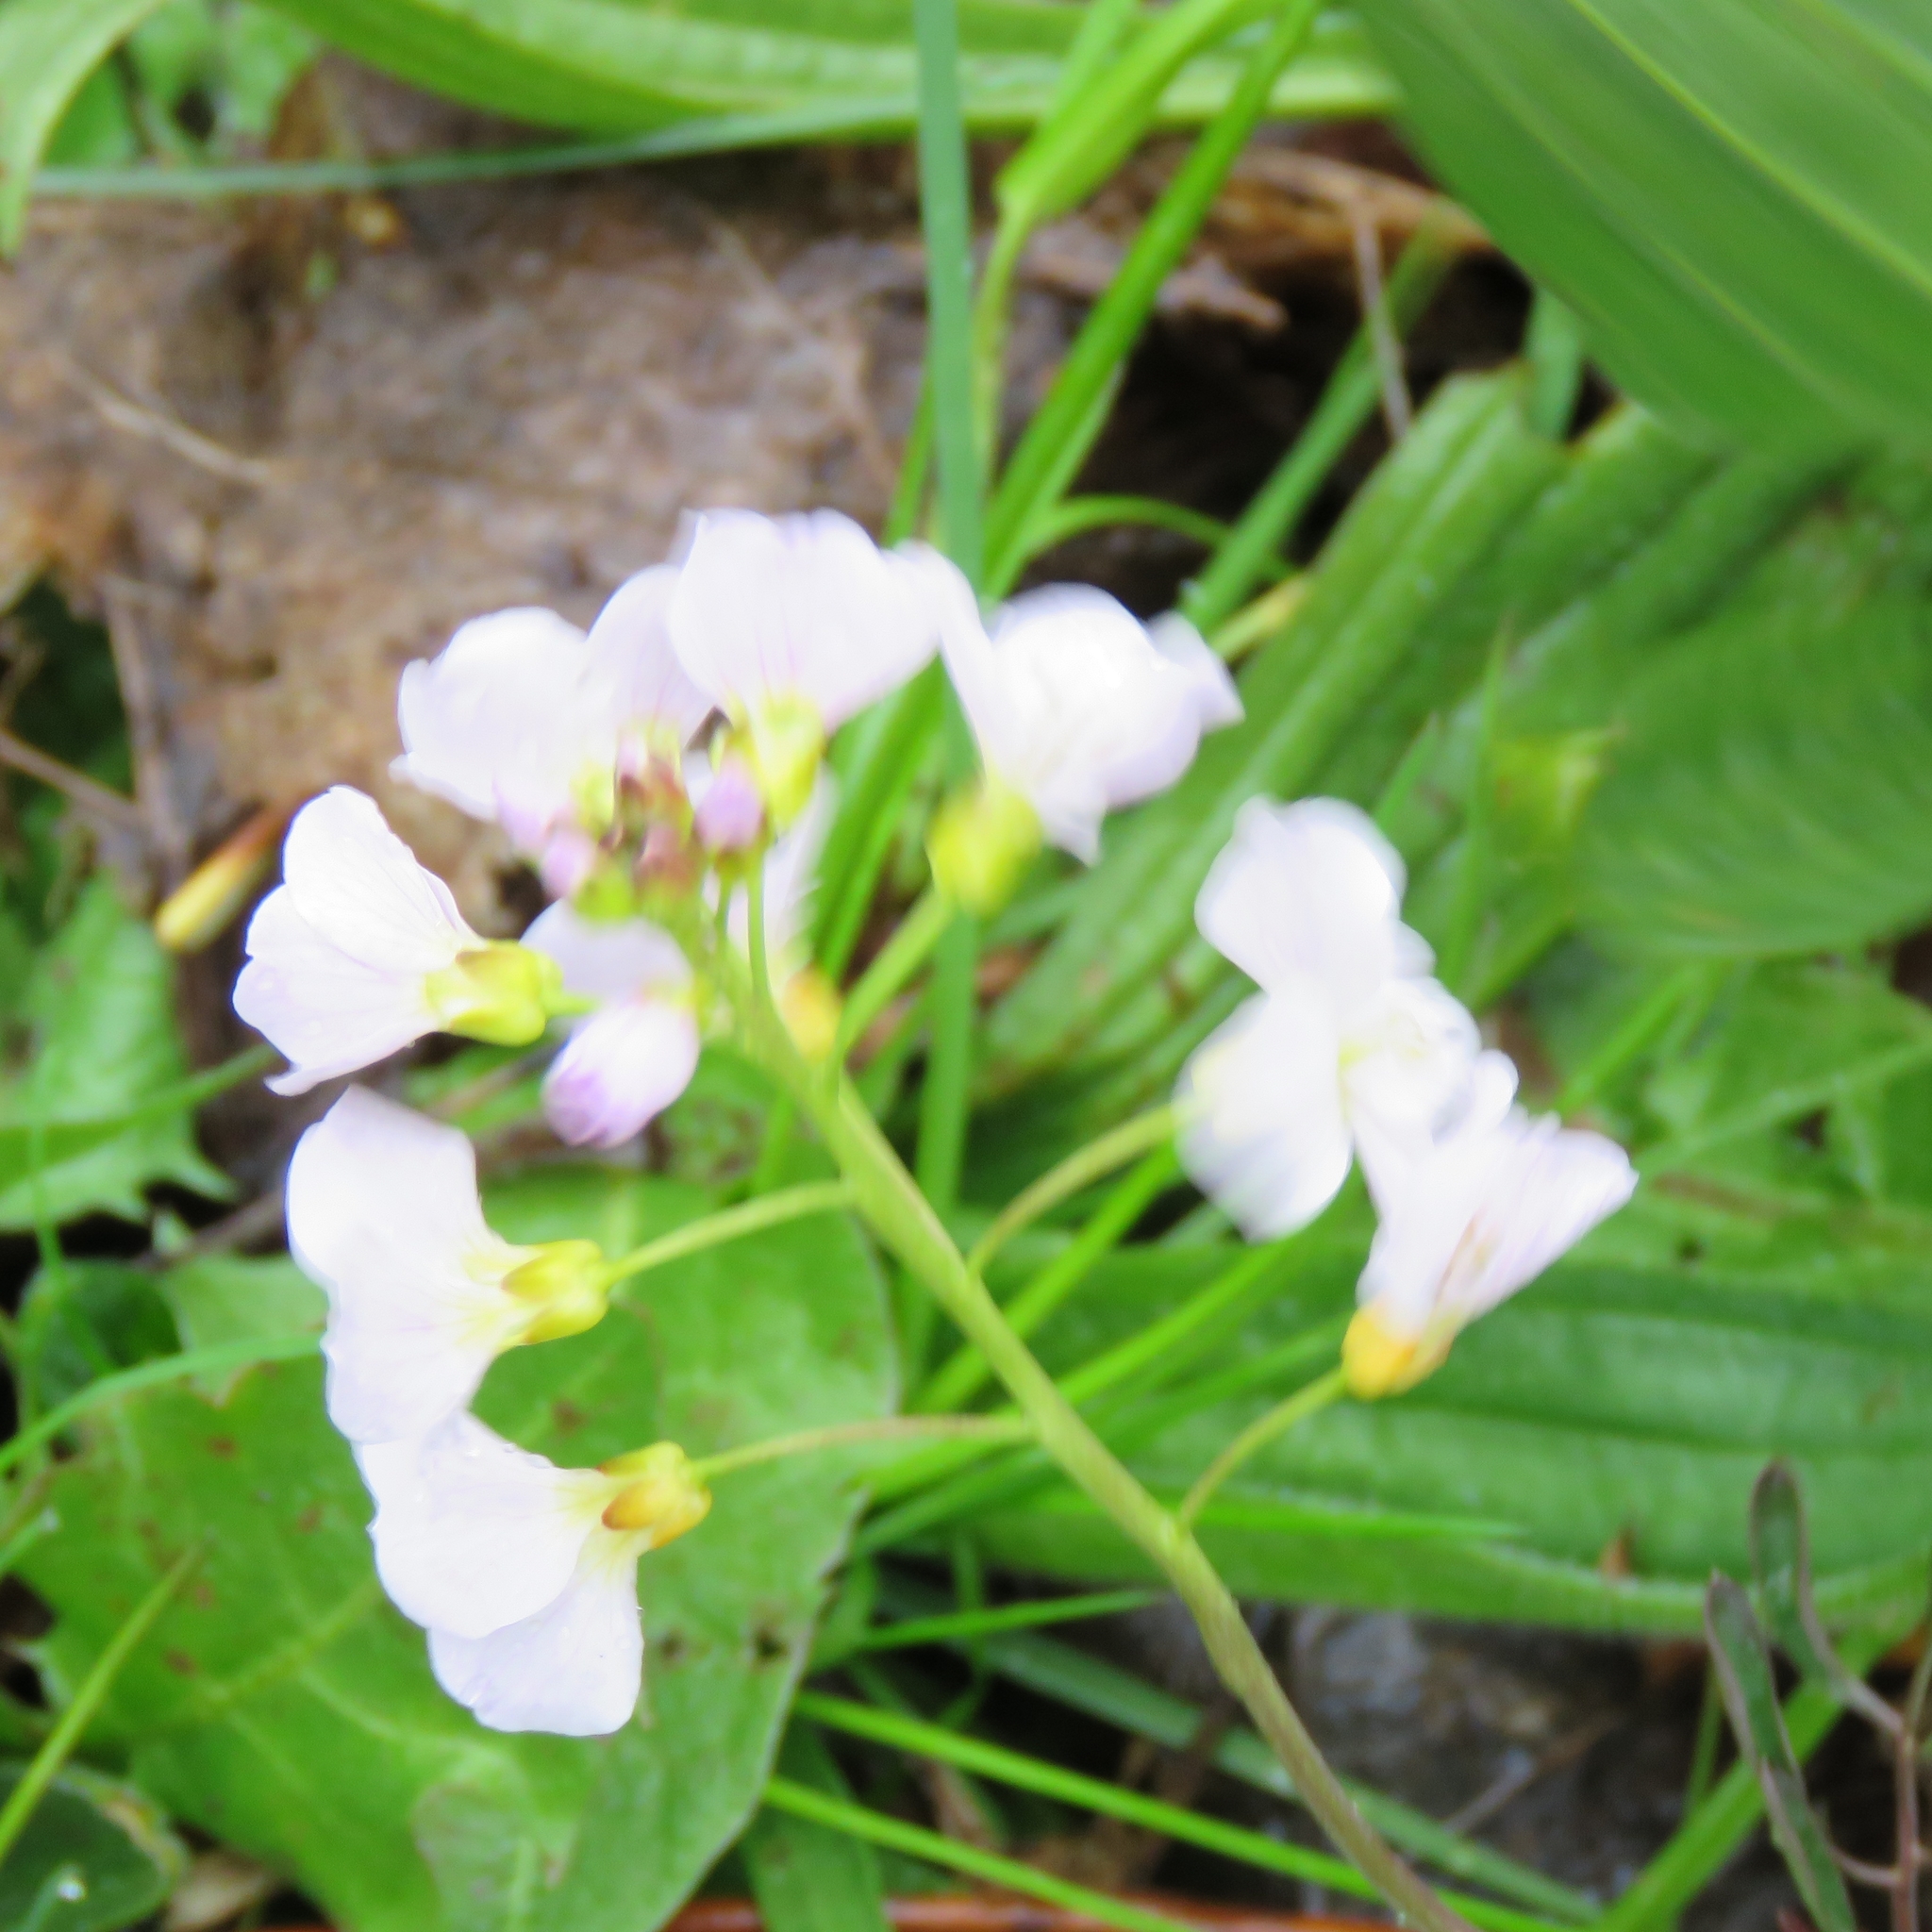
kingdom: Plantae
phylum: Tracheophyta
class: Magnoliopsida
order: Brassicales
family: Brassicaceae
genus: Cardamine
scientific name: Cardamine pratensis
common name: Cuckoo flower
